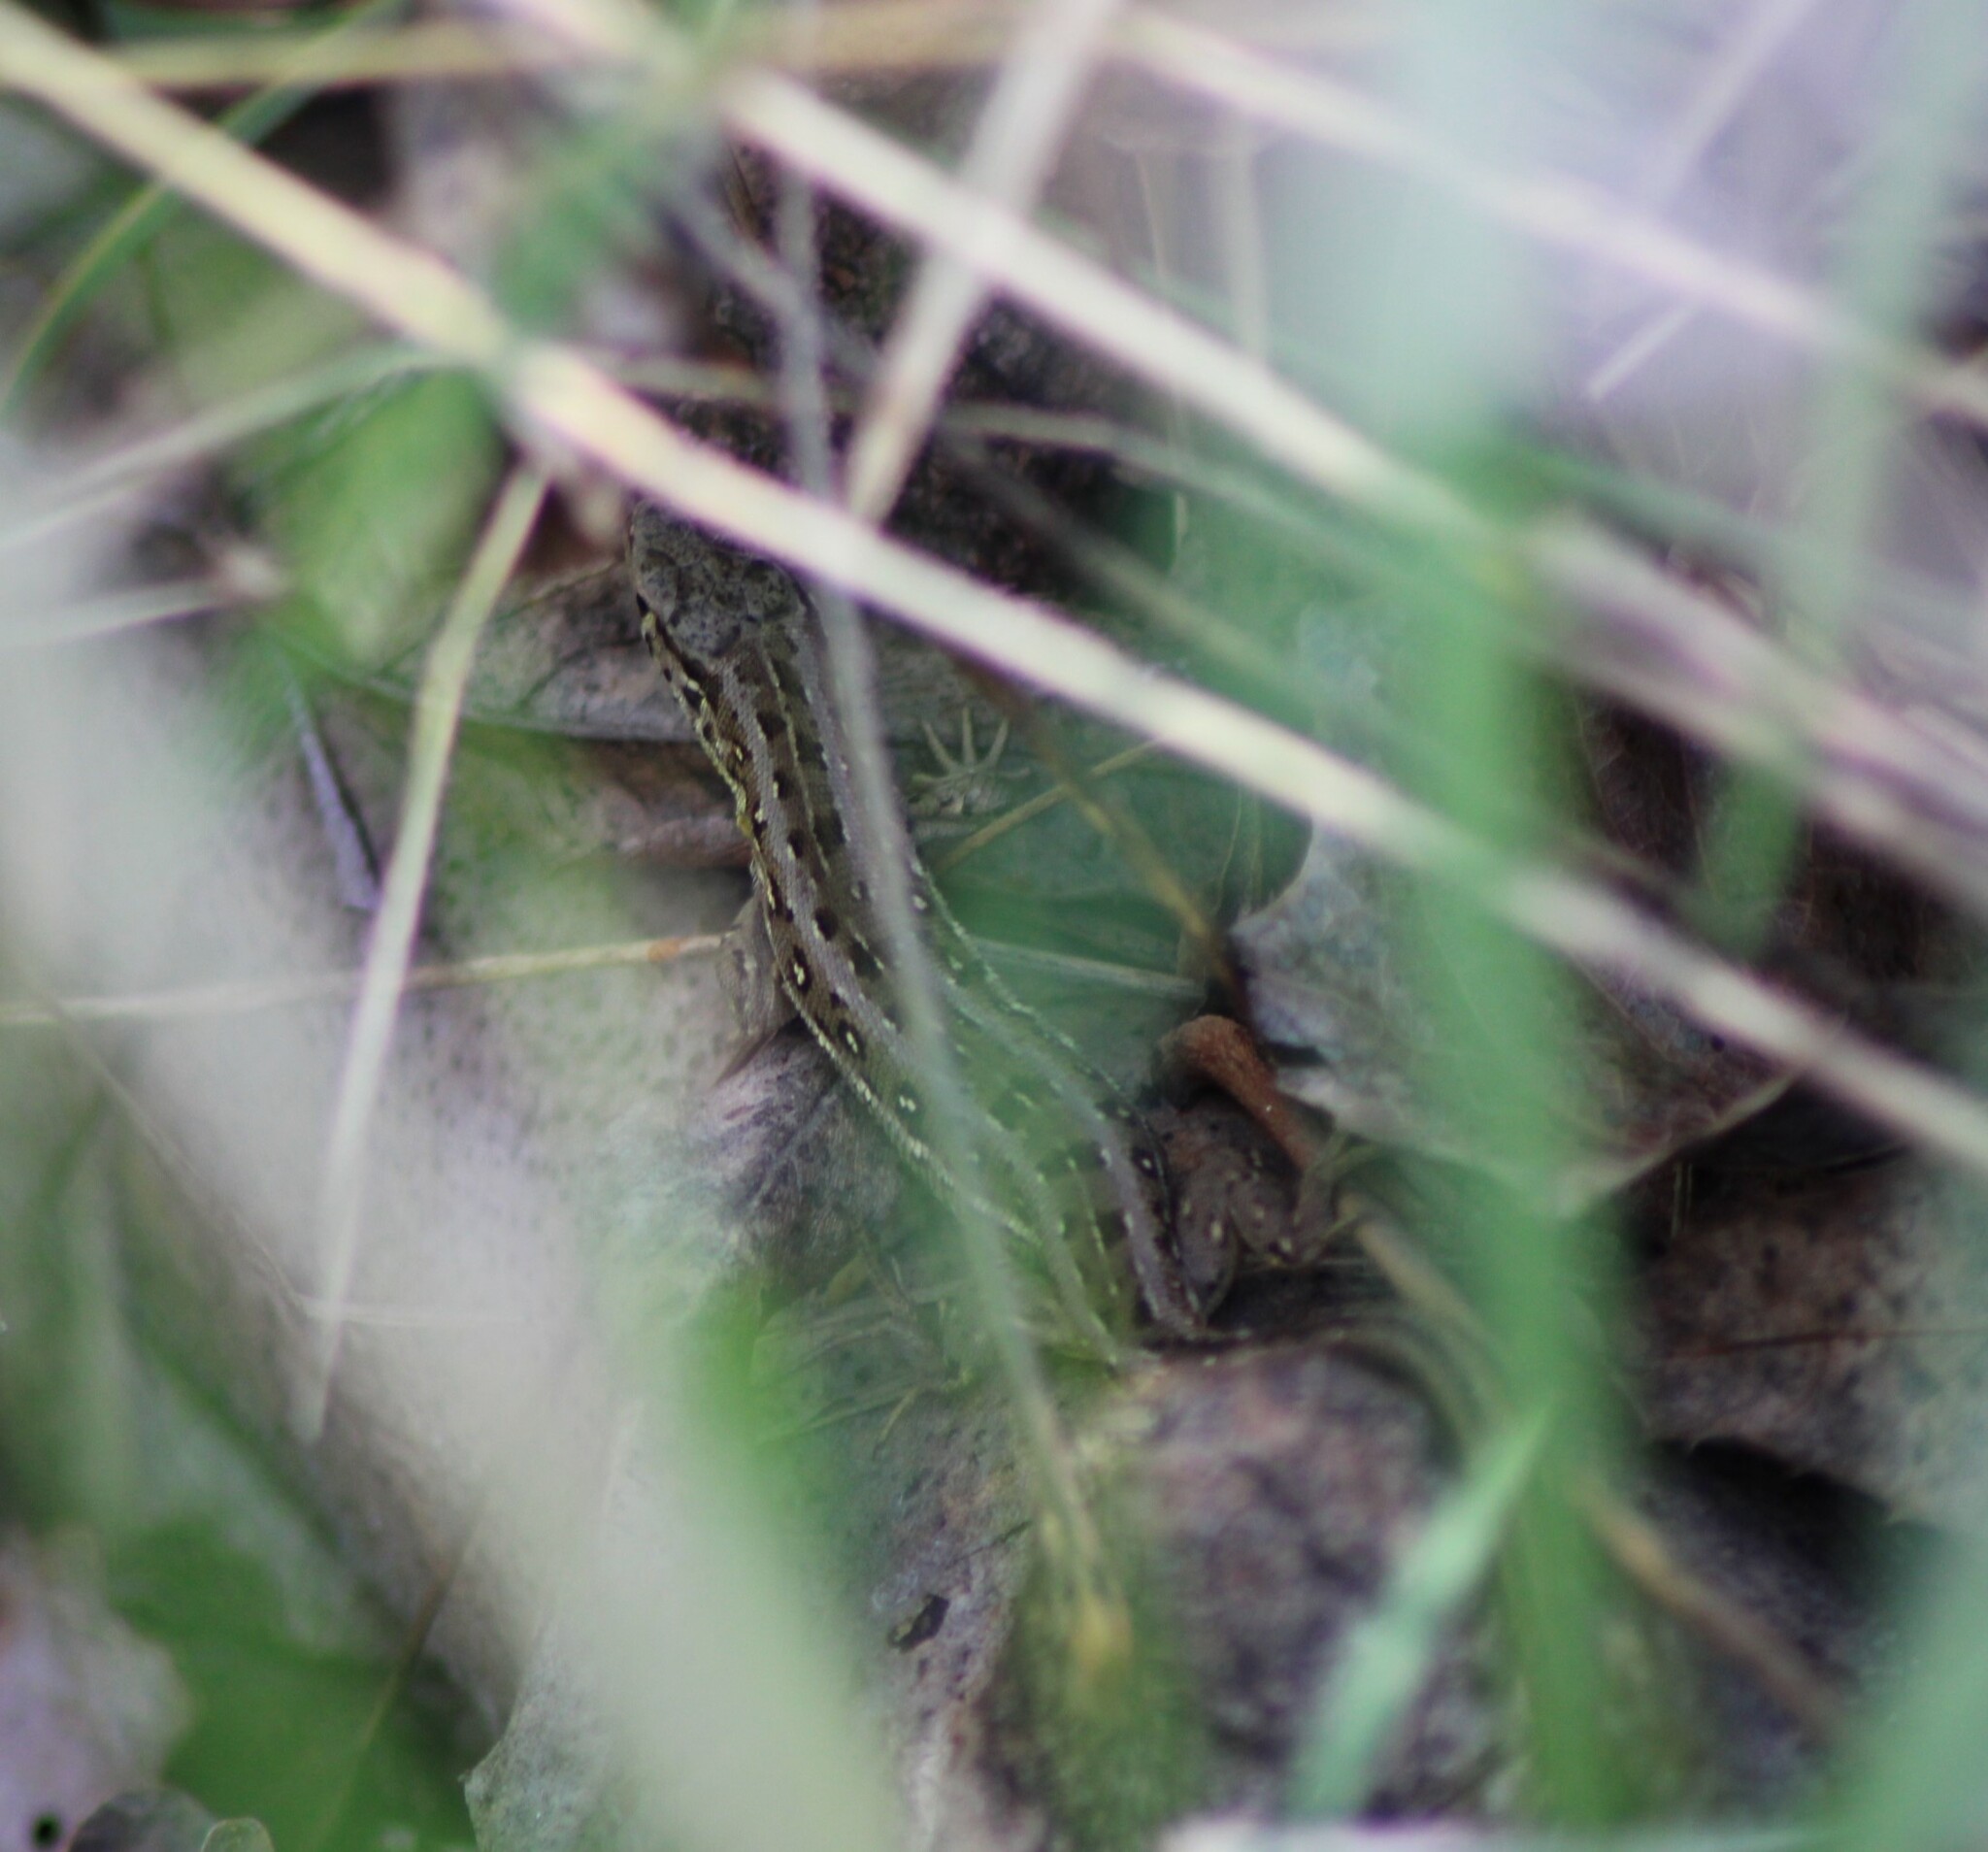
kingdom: Animalia
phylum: Chordata
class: Squamata
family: Lacertidae
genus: Lacerta
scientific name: Lacerta agilis
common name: Sand lizard
